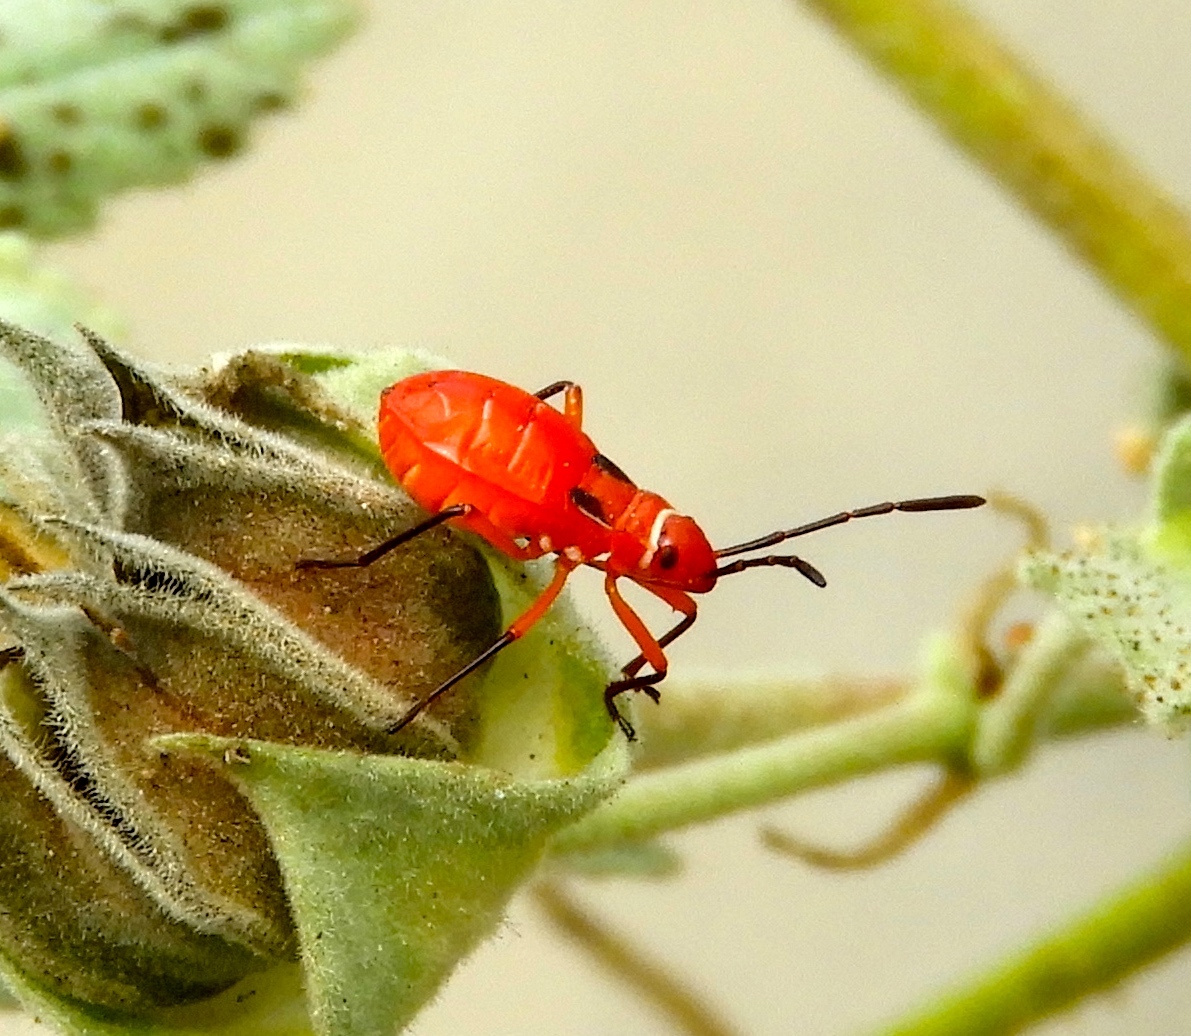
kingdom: Animalia
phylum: Arthropoda
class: Insecta
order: Hemiptera
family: Pyrrhocoridae
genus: Dysdercus
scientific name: Dysdercus
